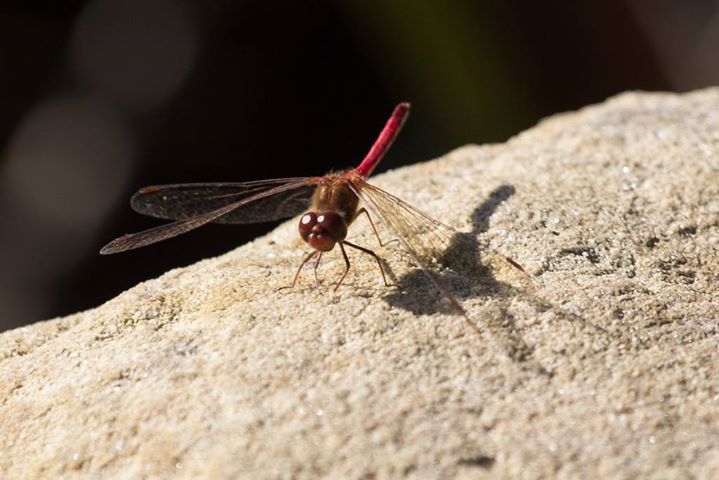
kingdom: Animalia
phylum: Arthropoda
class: Insecta
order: Odonata
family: Libellulidae
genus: Sympetrum
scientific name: Sympetrum vicinum
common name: Autumn meadowhawk
